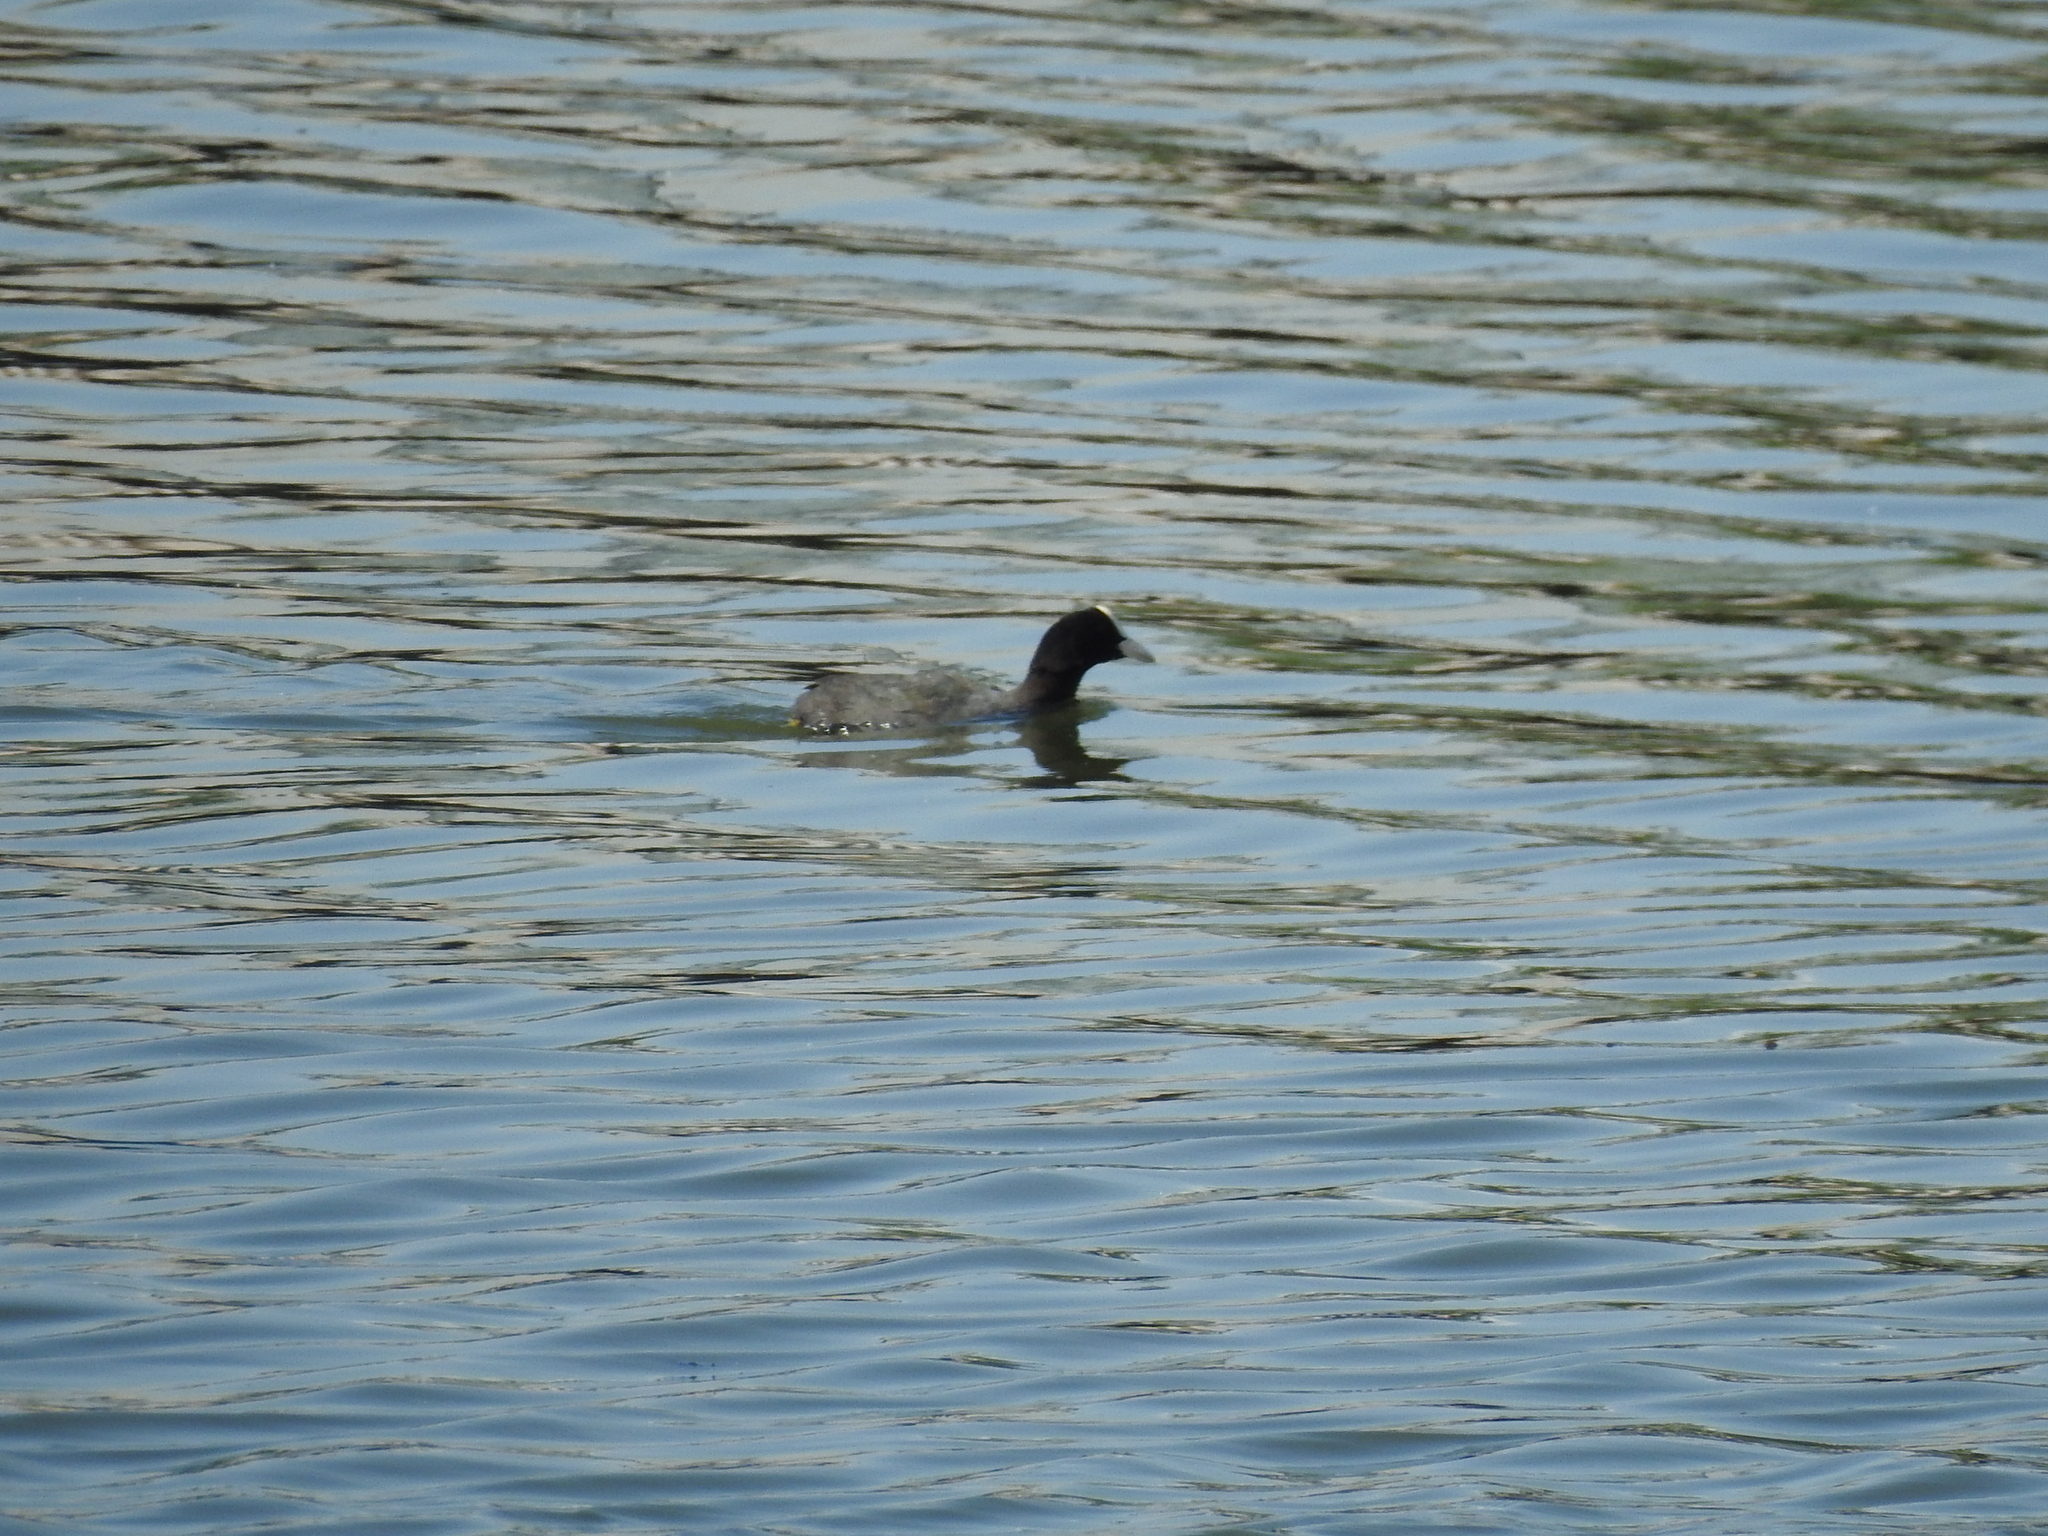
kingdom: Animalia
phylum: Chordata
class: Aves
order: Gruiformes
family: Rallidae
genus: Fulica
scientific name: Fulica atra
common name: Eurasian coot
